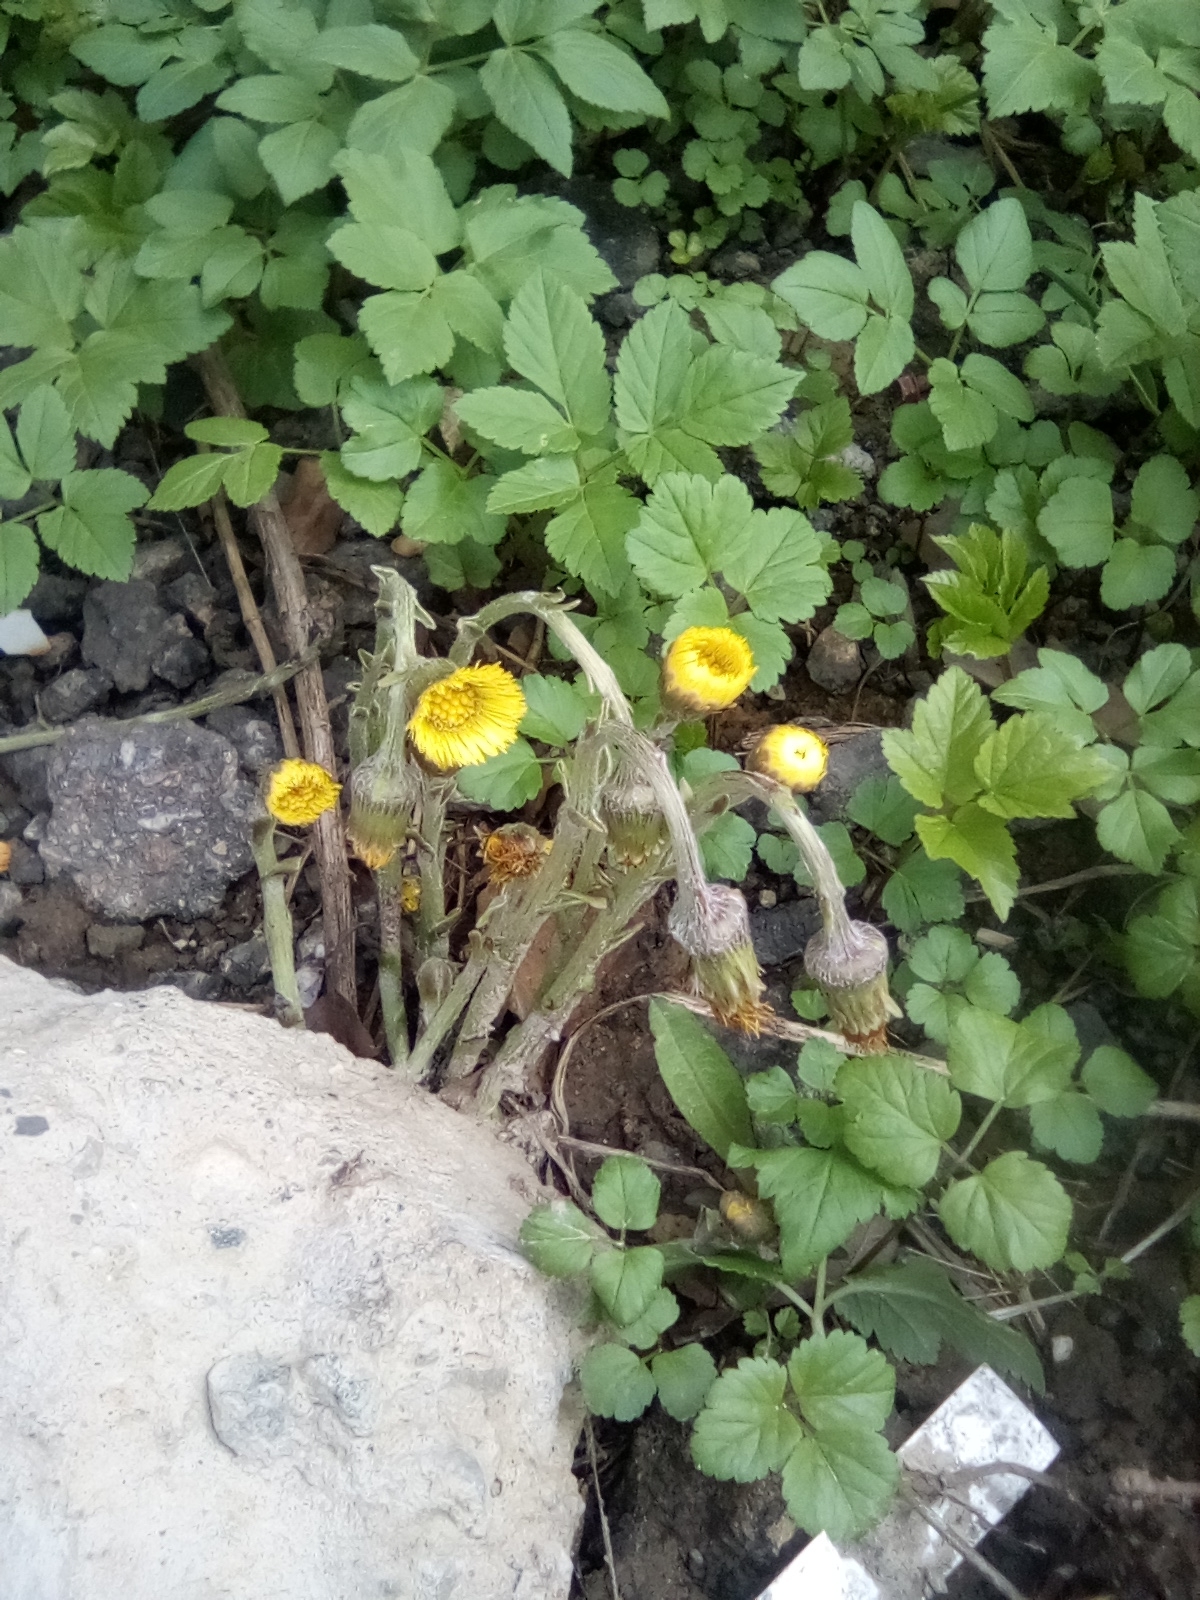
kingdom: Plantae
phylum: Tracheophyta
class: Magnoliopsida
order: Asterales
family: Asteraceae
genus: Tussilago
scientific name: Tussilago farfara
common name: Coltsfoot
